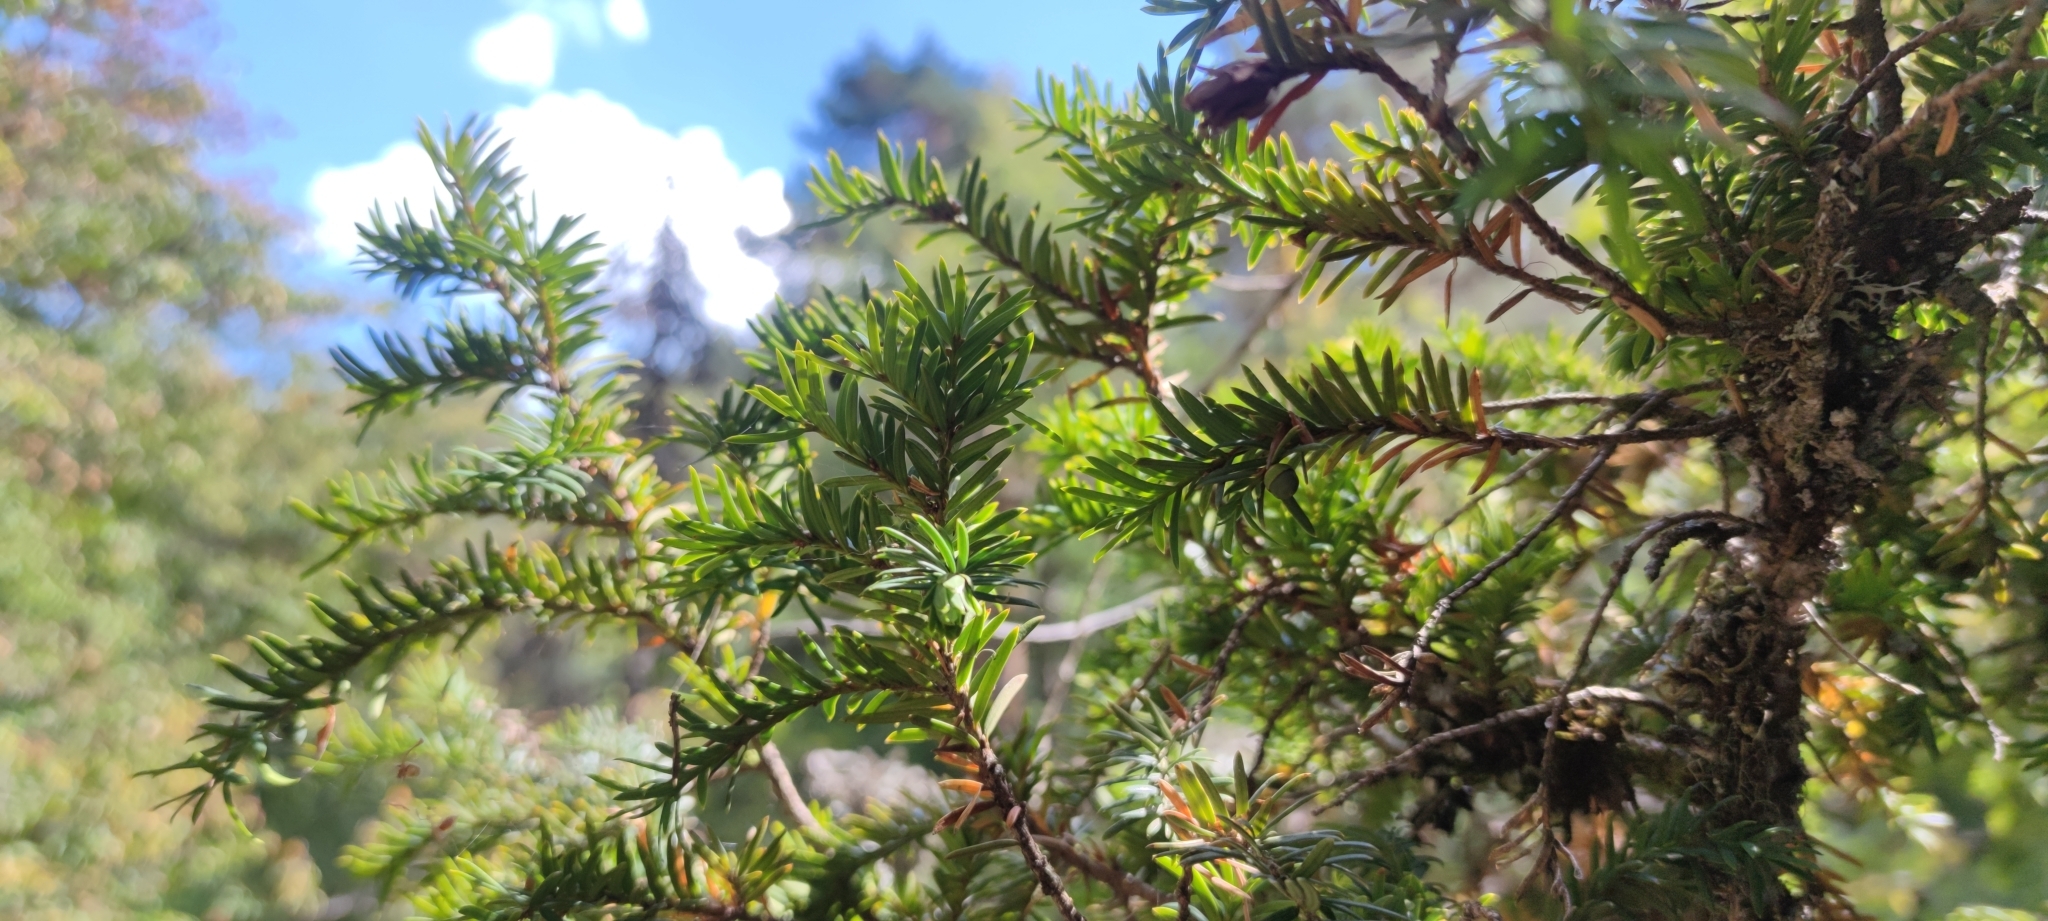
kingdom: Plantae
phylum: Tracheophyta
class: Pinopsida
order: Pinales
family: Taxaceae
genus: Taxus
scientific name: Taxus baccata
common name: Yew
